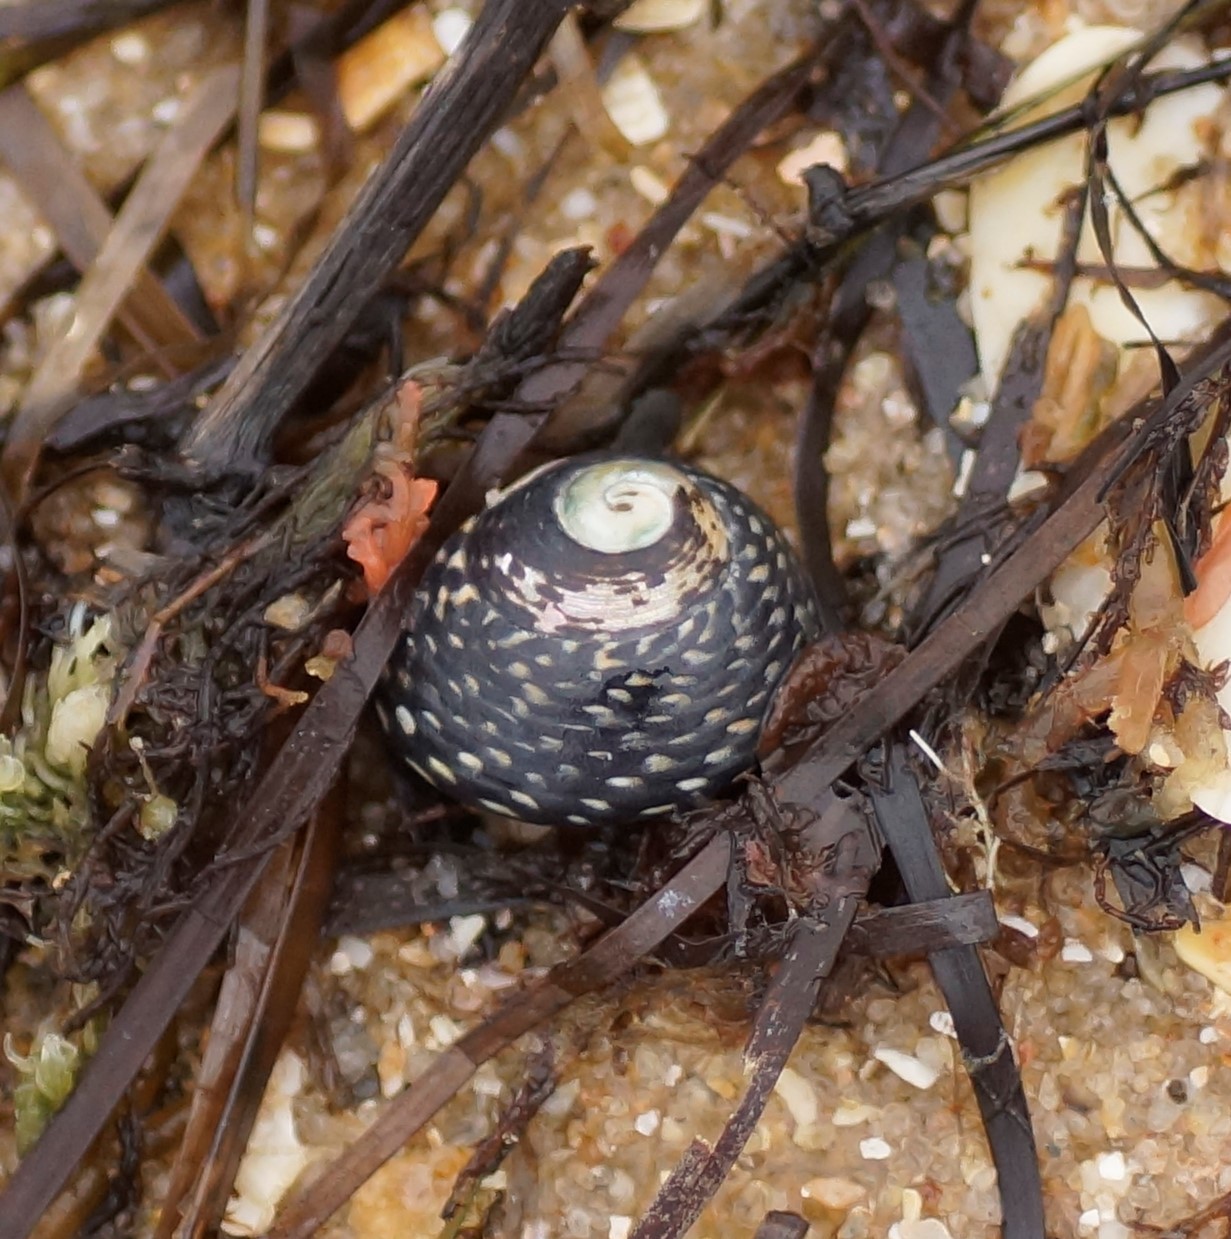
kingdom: Animalia
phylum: Mollusca
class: Gastropoda
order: Trochida
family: Trochidae
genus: Chlorodiloma
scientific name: Chlorodiloma odontis
